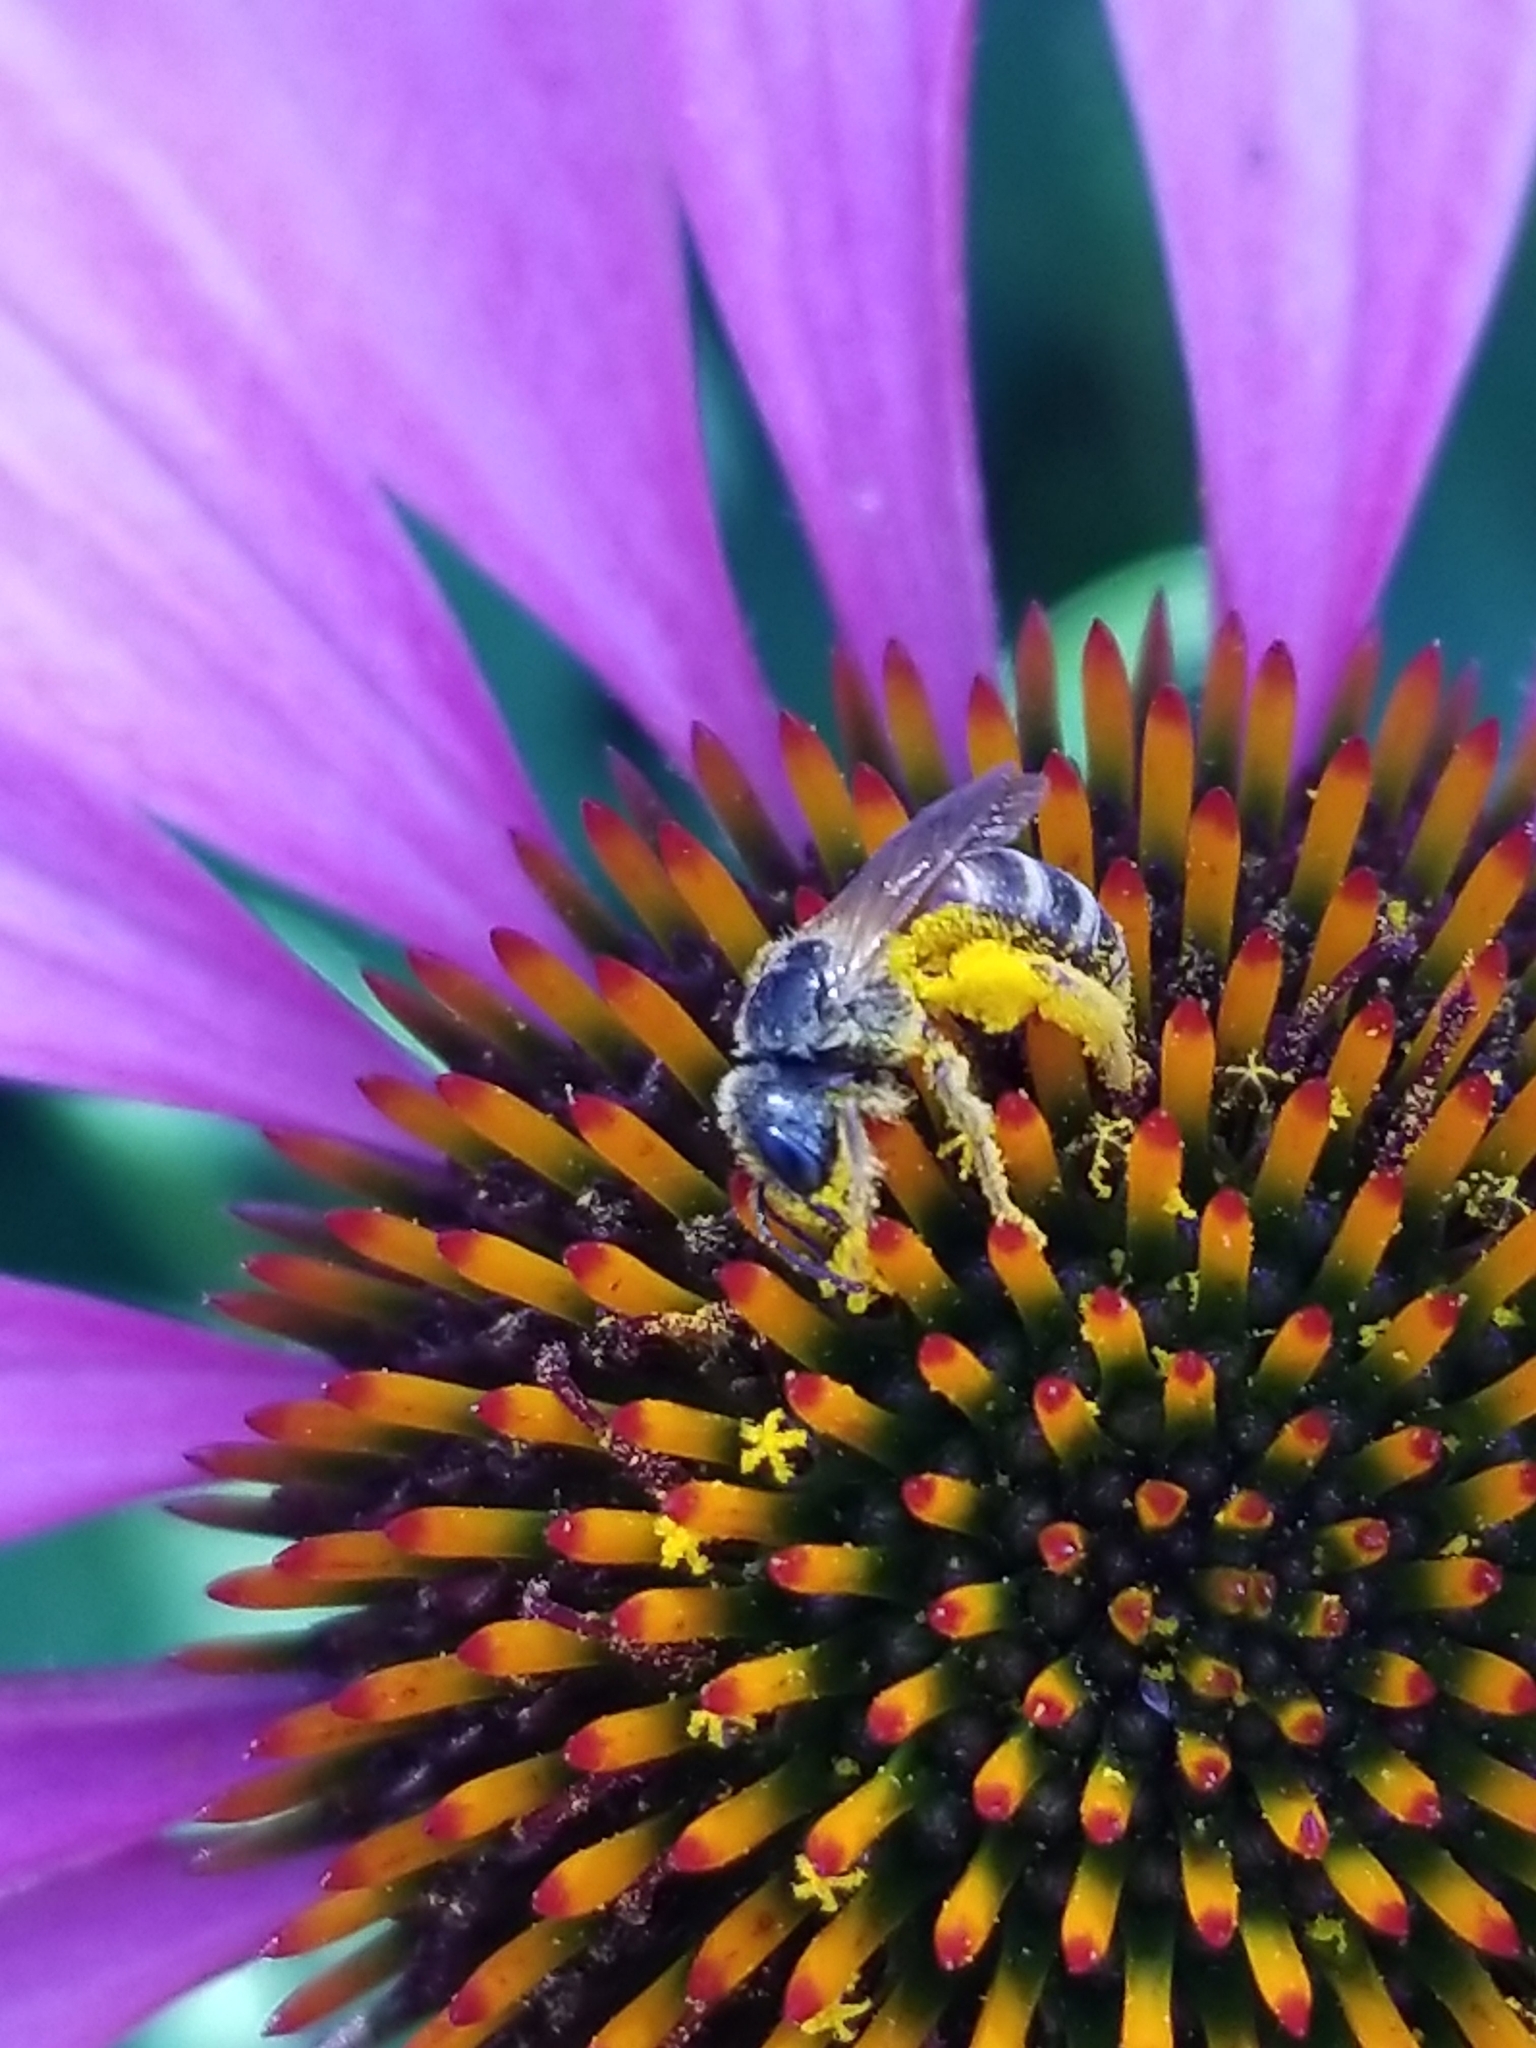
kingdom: Animalia
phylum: Arthropoda
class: Insecta
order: Hymenoptera
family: Halictidae
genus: Halictus
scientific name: Halictus ligatus
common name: Ligated furrow bee
